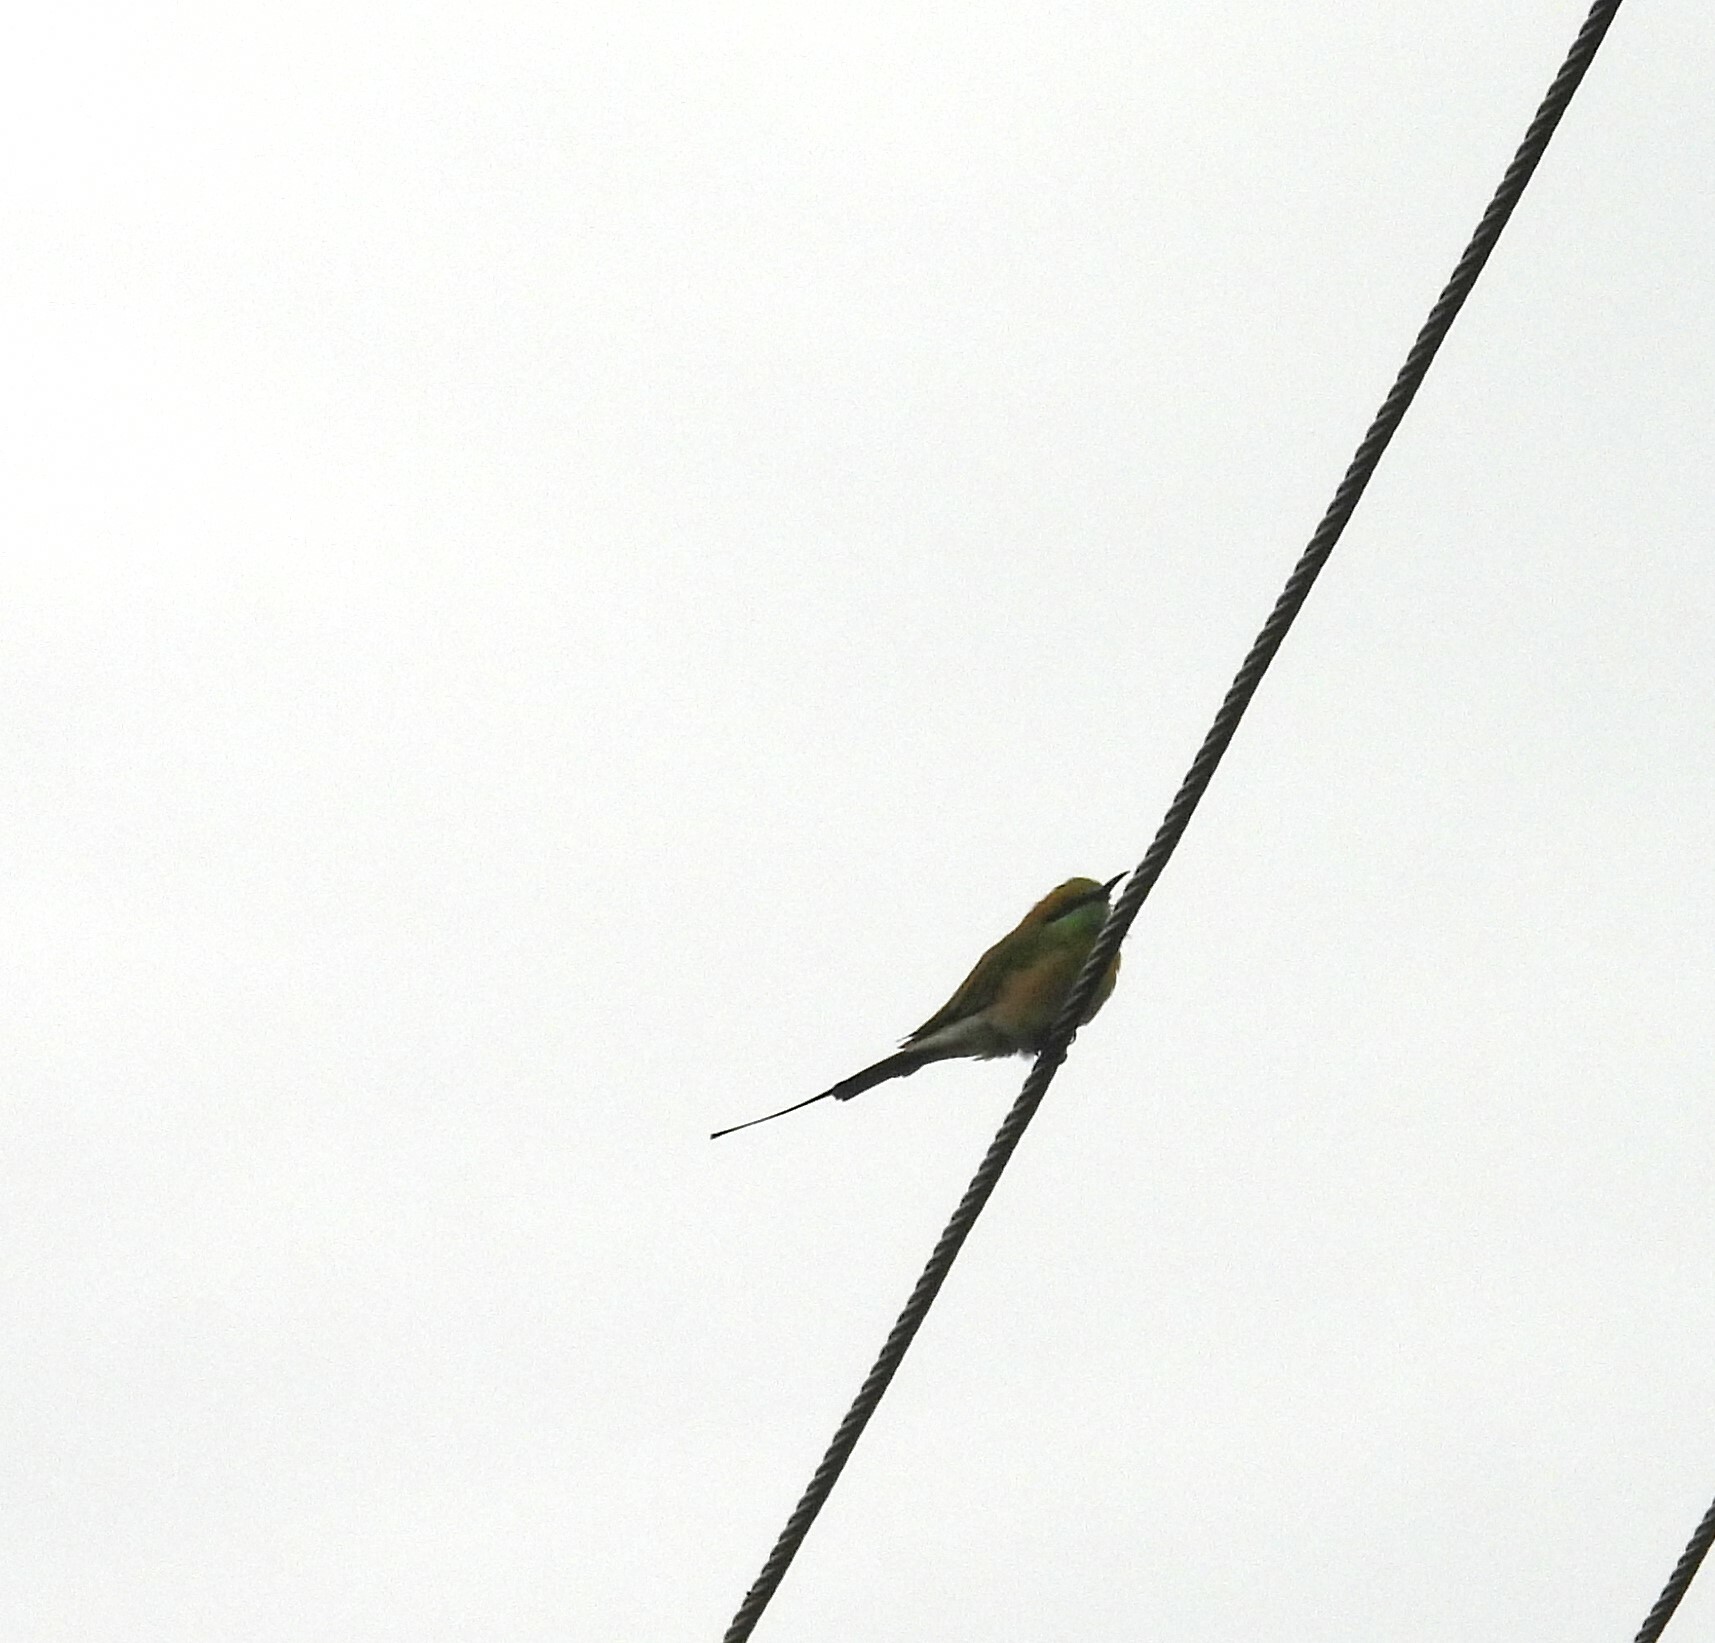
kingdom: Animalia
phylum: Chordata
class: Aves
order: Coraciiformes
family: Meropidae
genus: Merops
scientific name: Merops orientalis
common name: Green bee-eater
